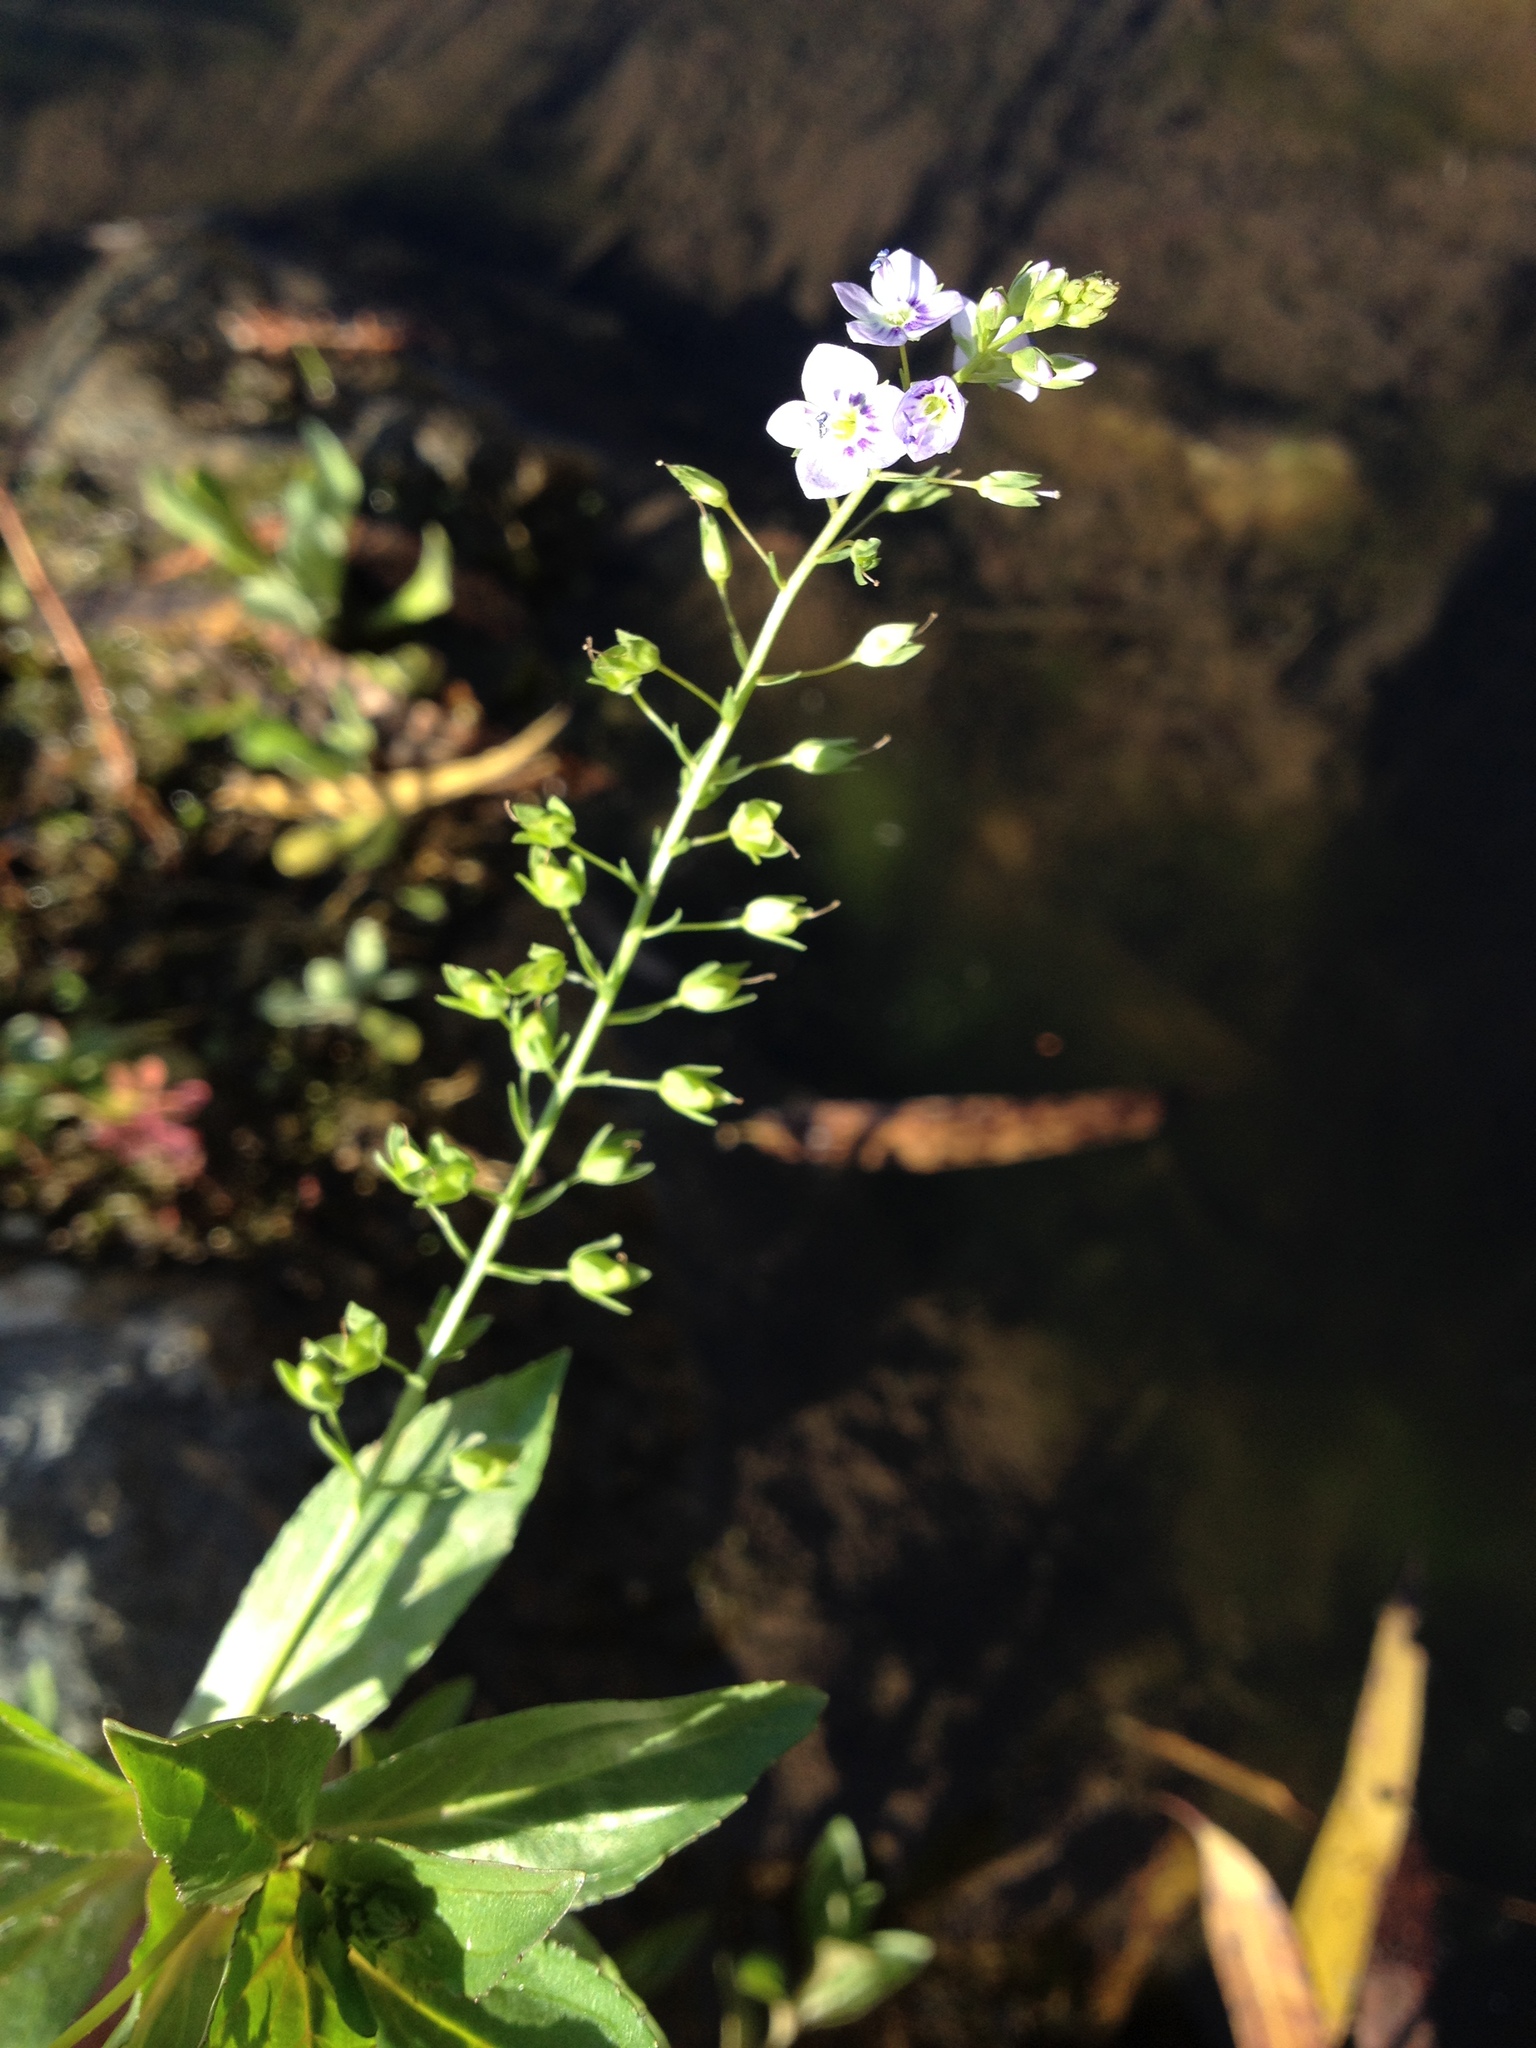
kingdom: Plantae
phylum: Tracheophyta
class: Magnoliopsida
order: Lamiales
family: Plantaginaceae
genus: Veronica
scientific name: Veronica anagallis-aquatica
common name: Water speedwell
